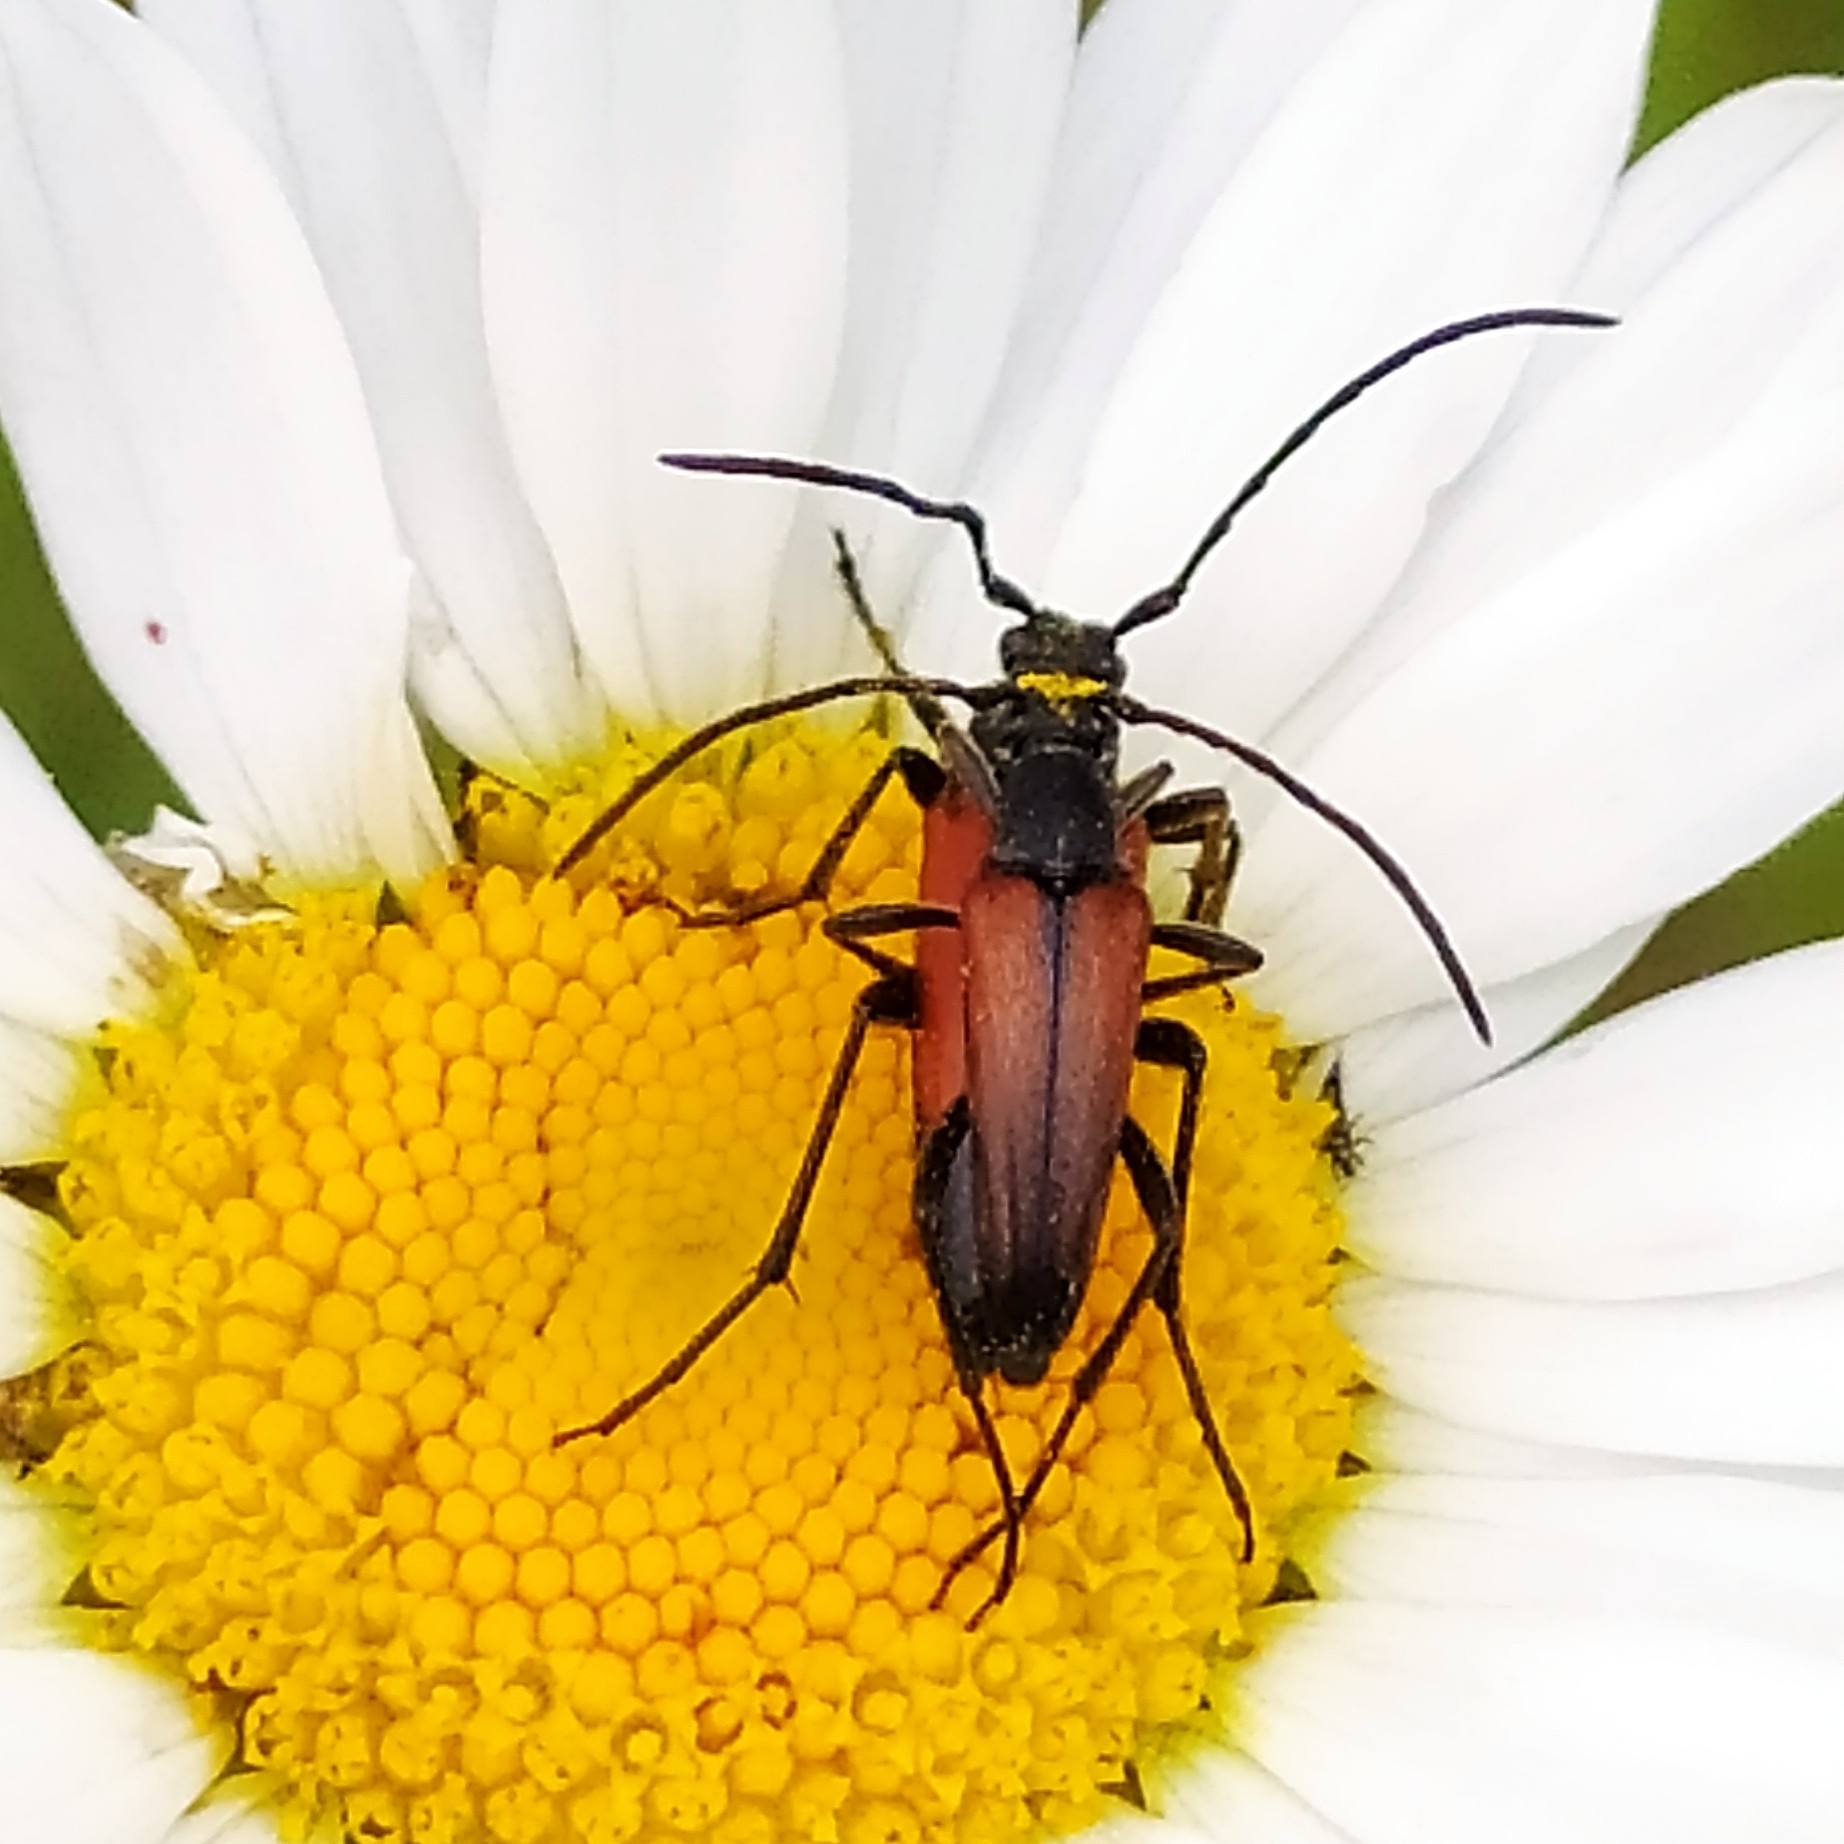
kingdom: Animalia
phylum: Arthropoda
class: Insecta
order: Coleoptera
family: Cerambycidae
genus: Stenurella
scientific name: Stenurella melanura
